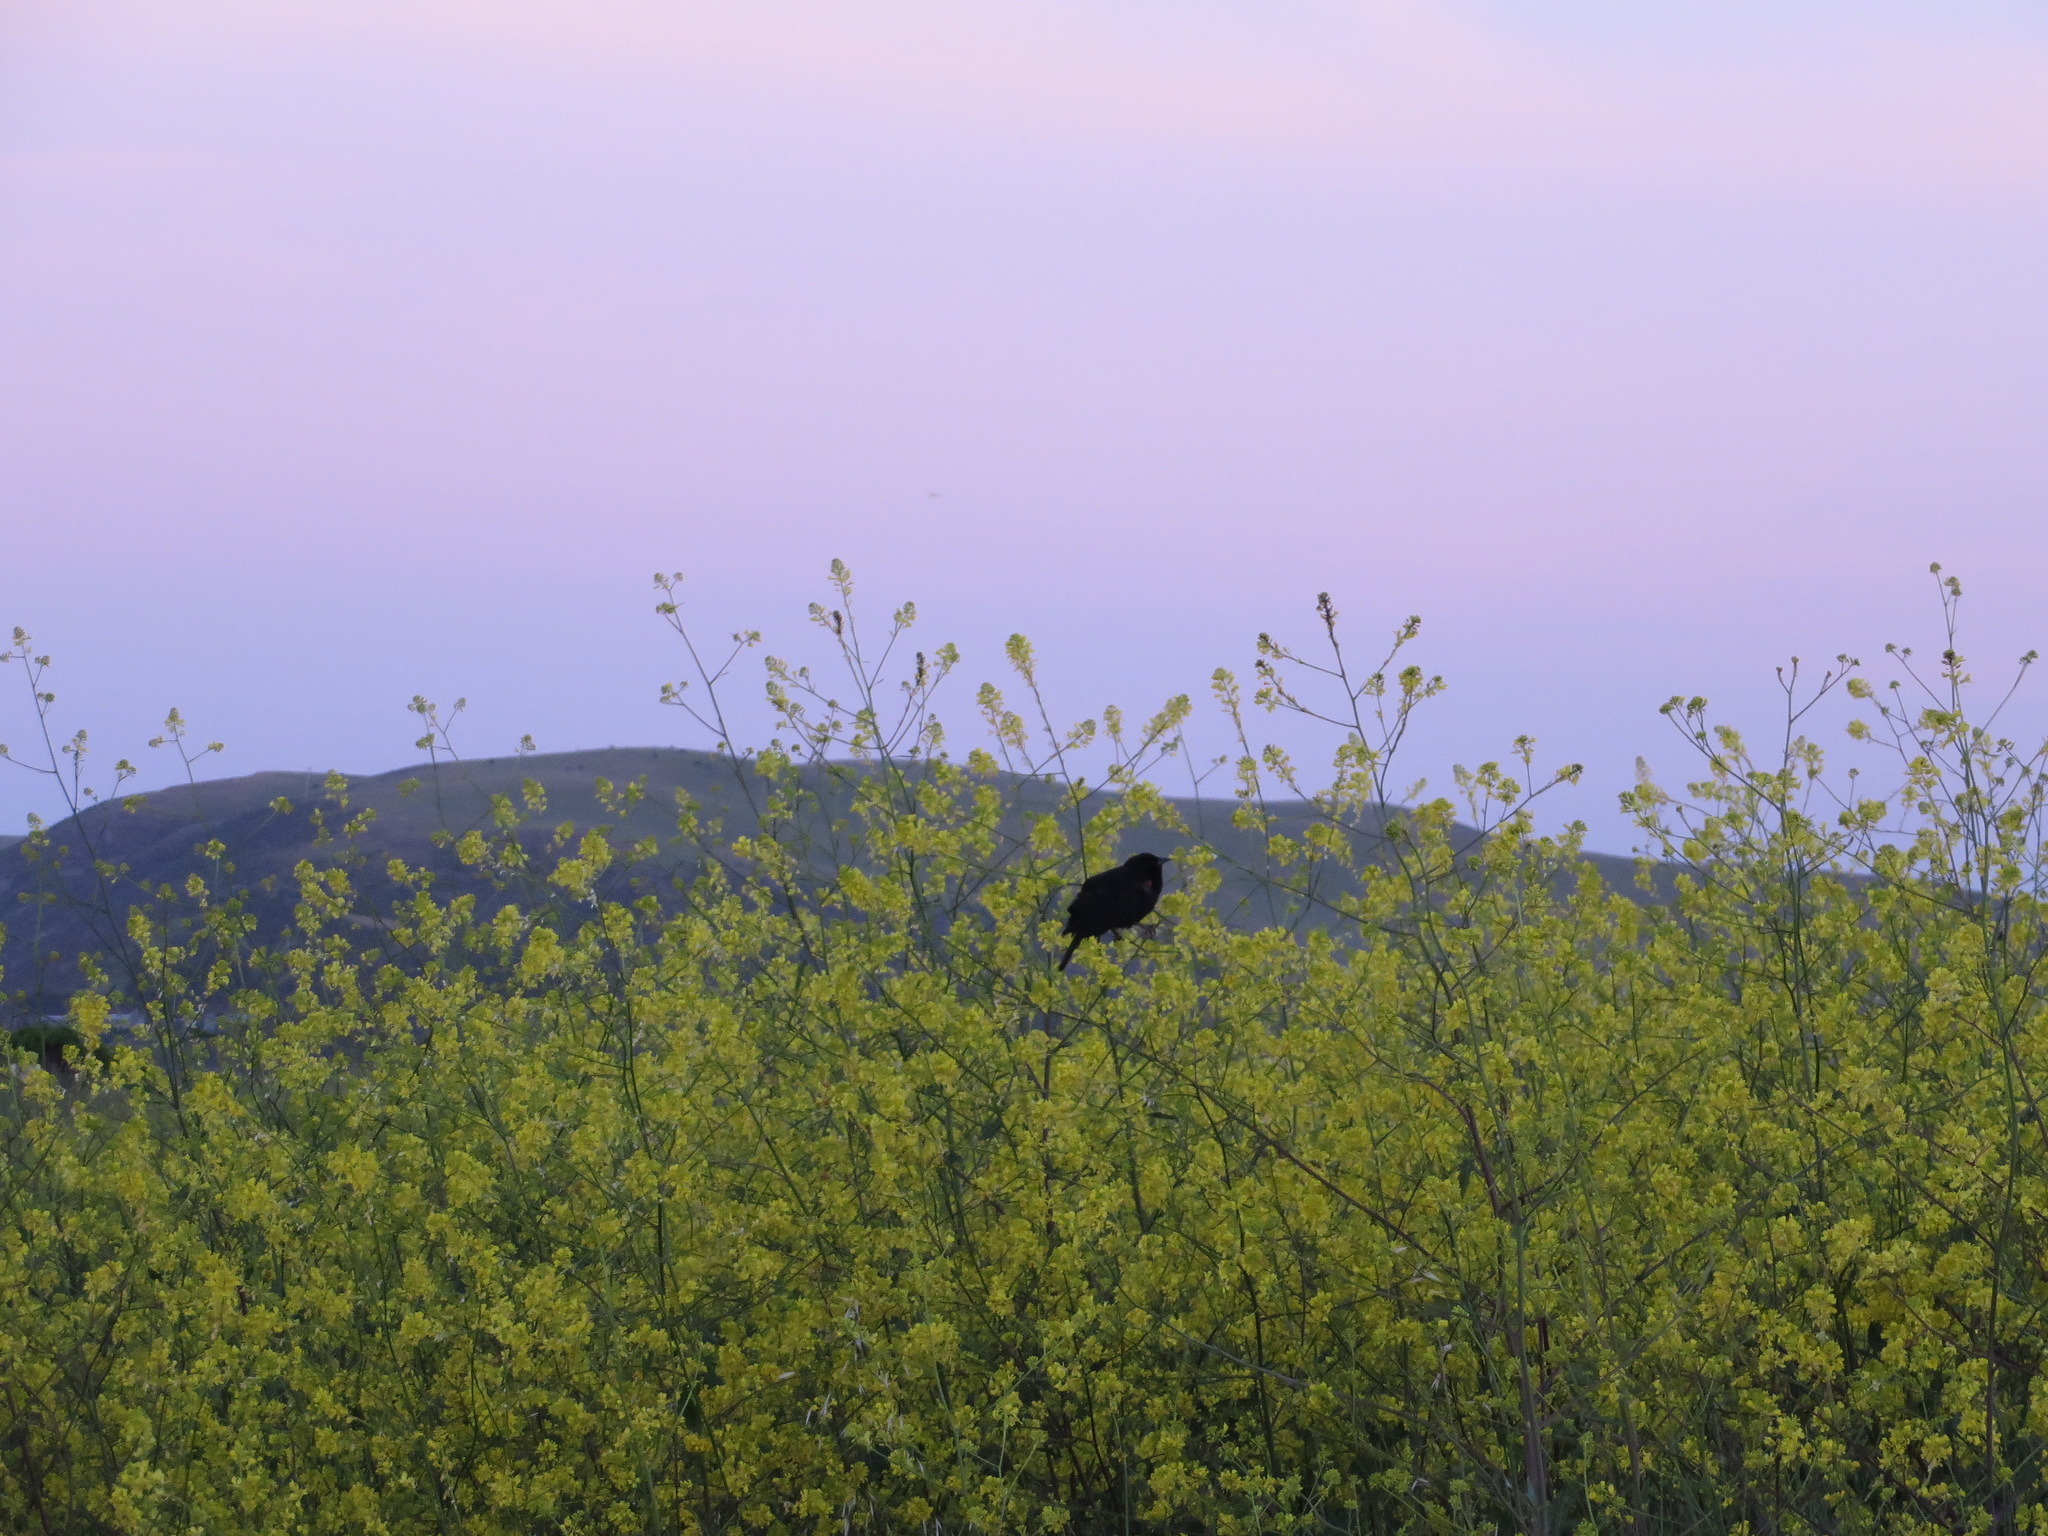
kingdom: Animalia
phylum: Chordata
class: Aves
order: Passeriformes
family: Icteridae
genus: Agelaius
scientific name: Agelaius phoeniceus
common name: Red-winged blackbird
